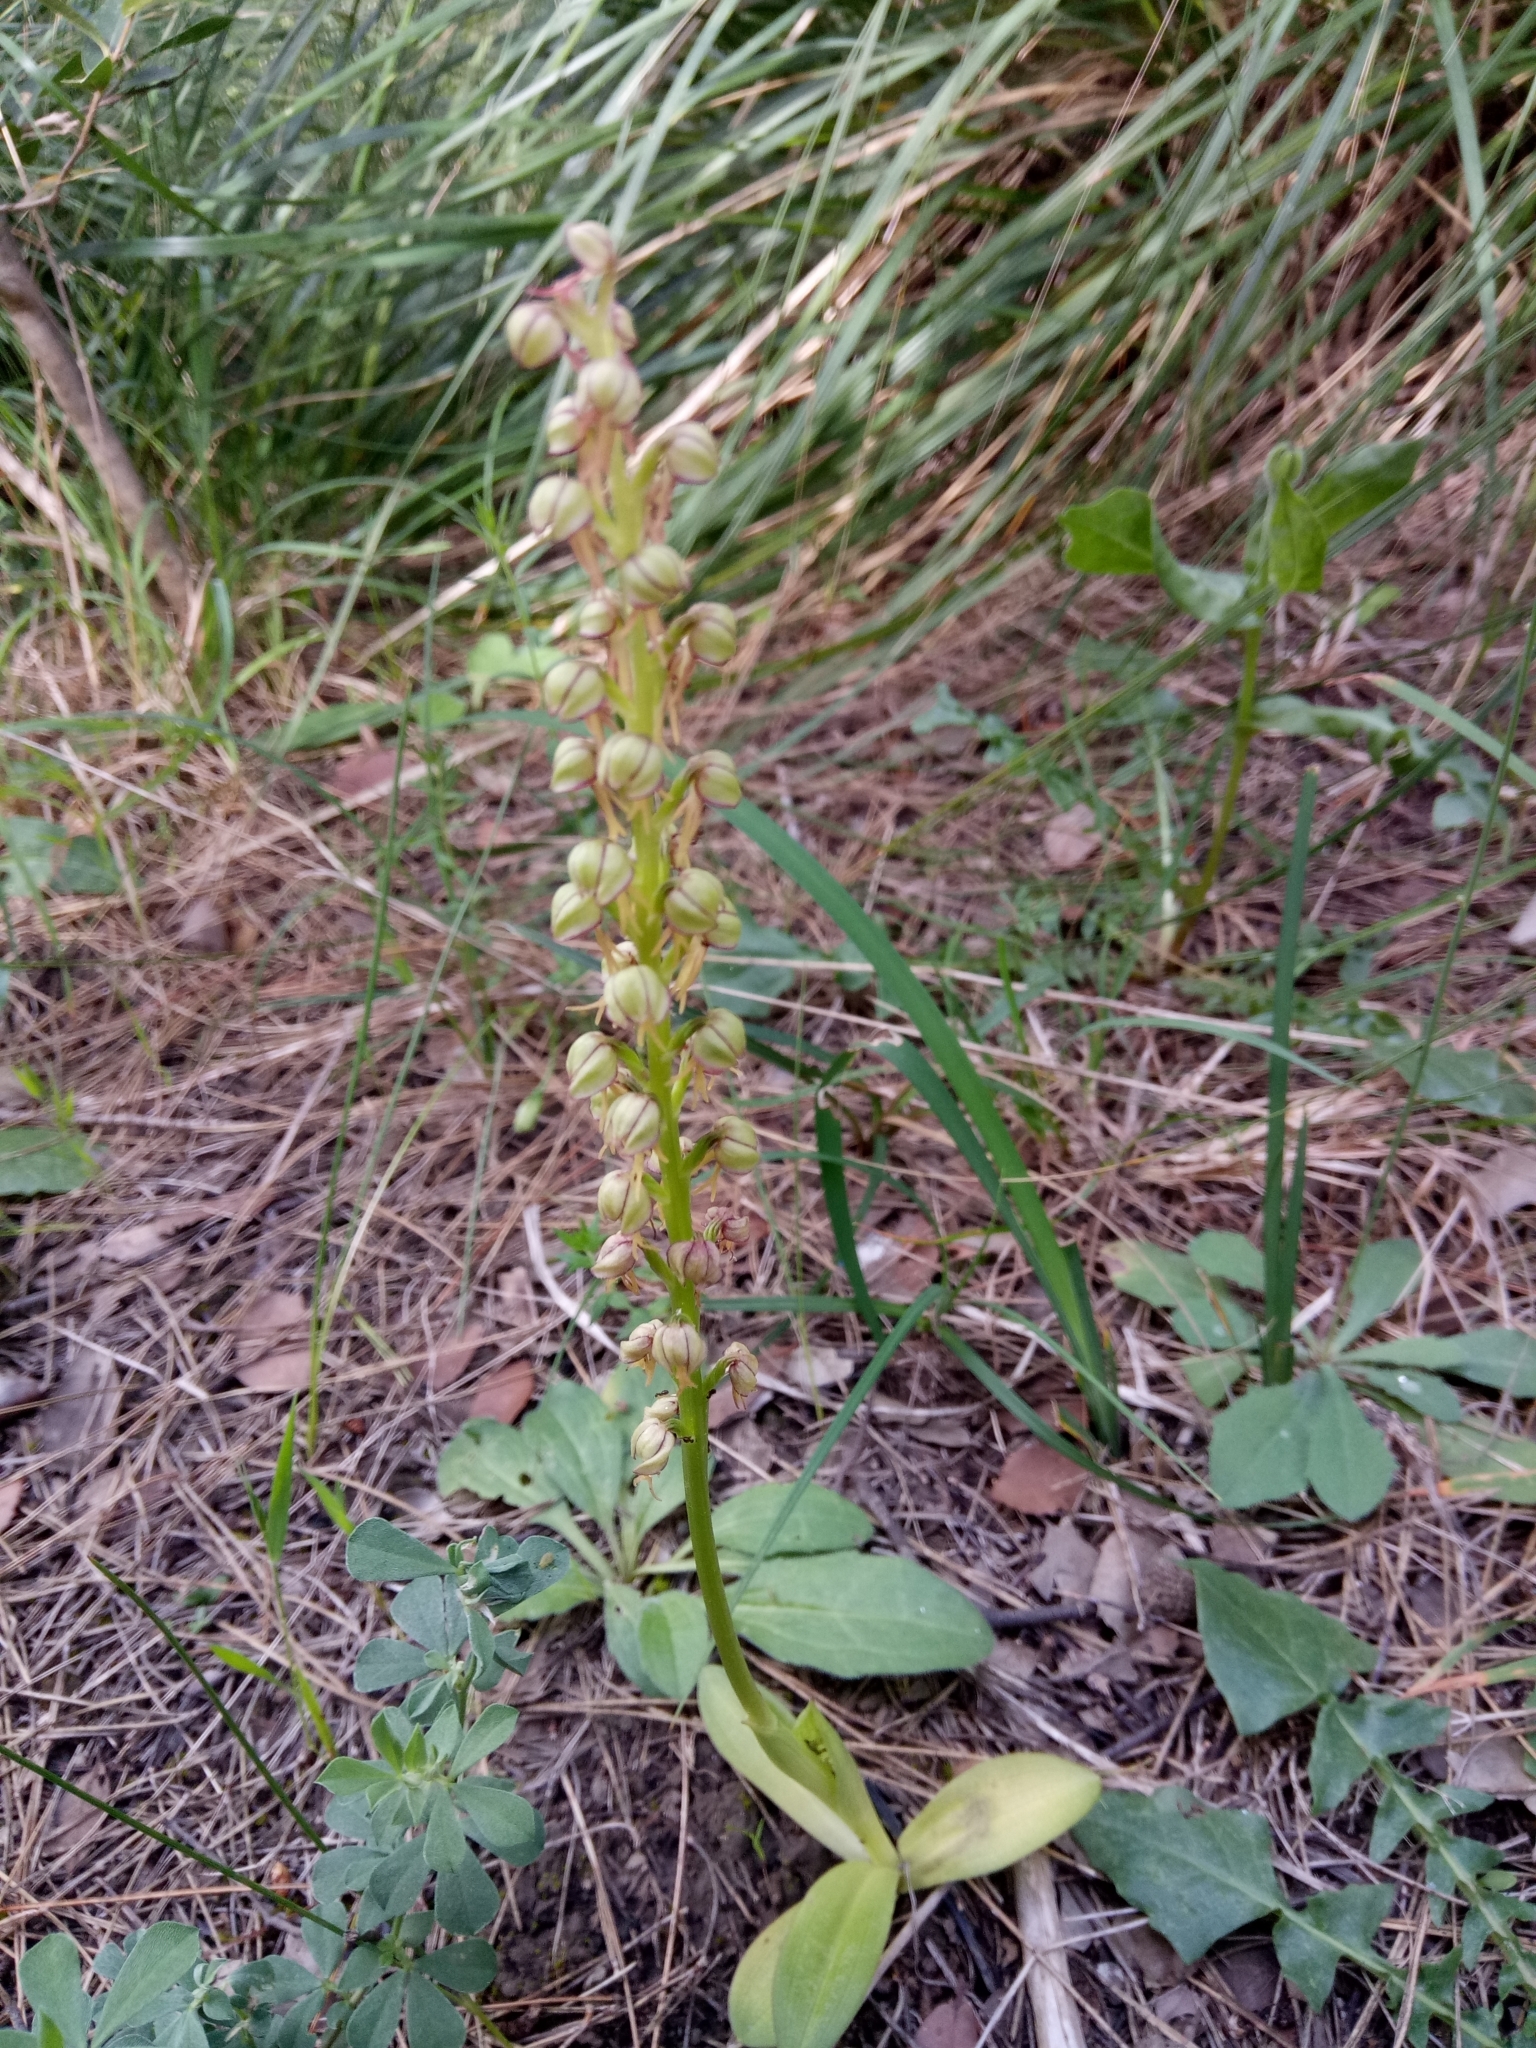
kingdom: Plantae
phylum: Tracheophyta
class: Liliopsida
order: Asparagales
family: Orchidaceae
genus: Orchis
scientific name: Orchis anthropophora
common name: Man orchid
